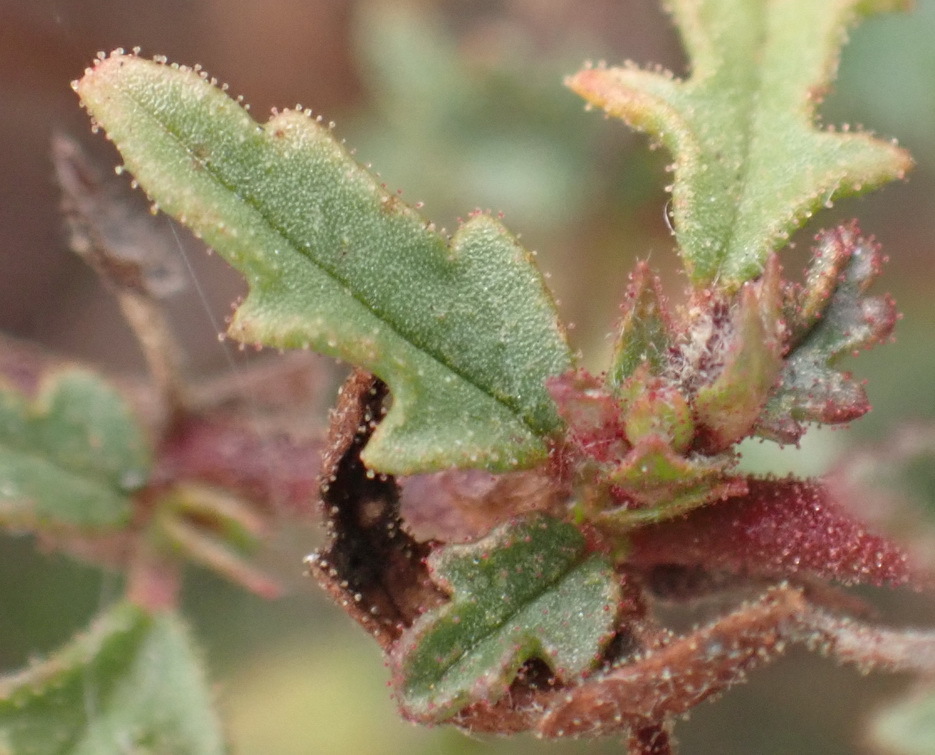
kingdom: Plantae
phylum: Tracheophyta
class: Magnoliopsida
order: Malvales
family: Malvaceae
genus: Hermannia
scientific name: Hermannia lacera
